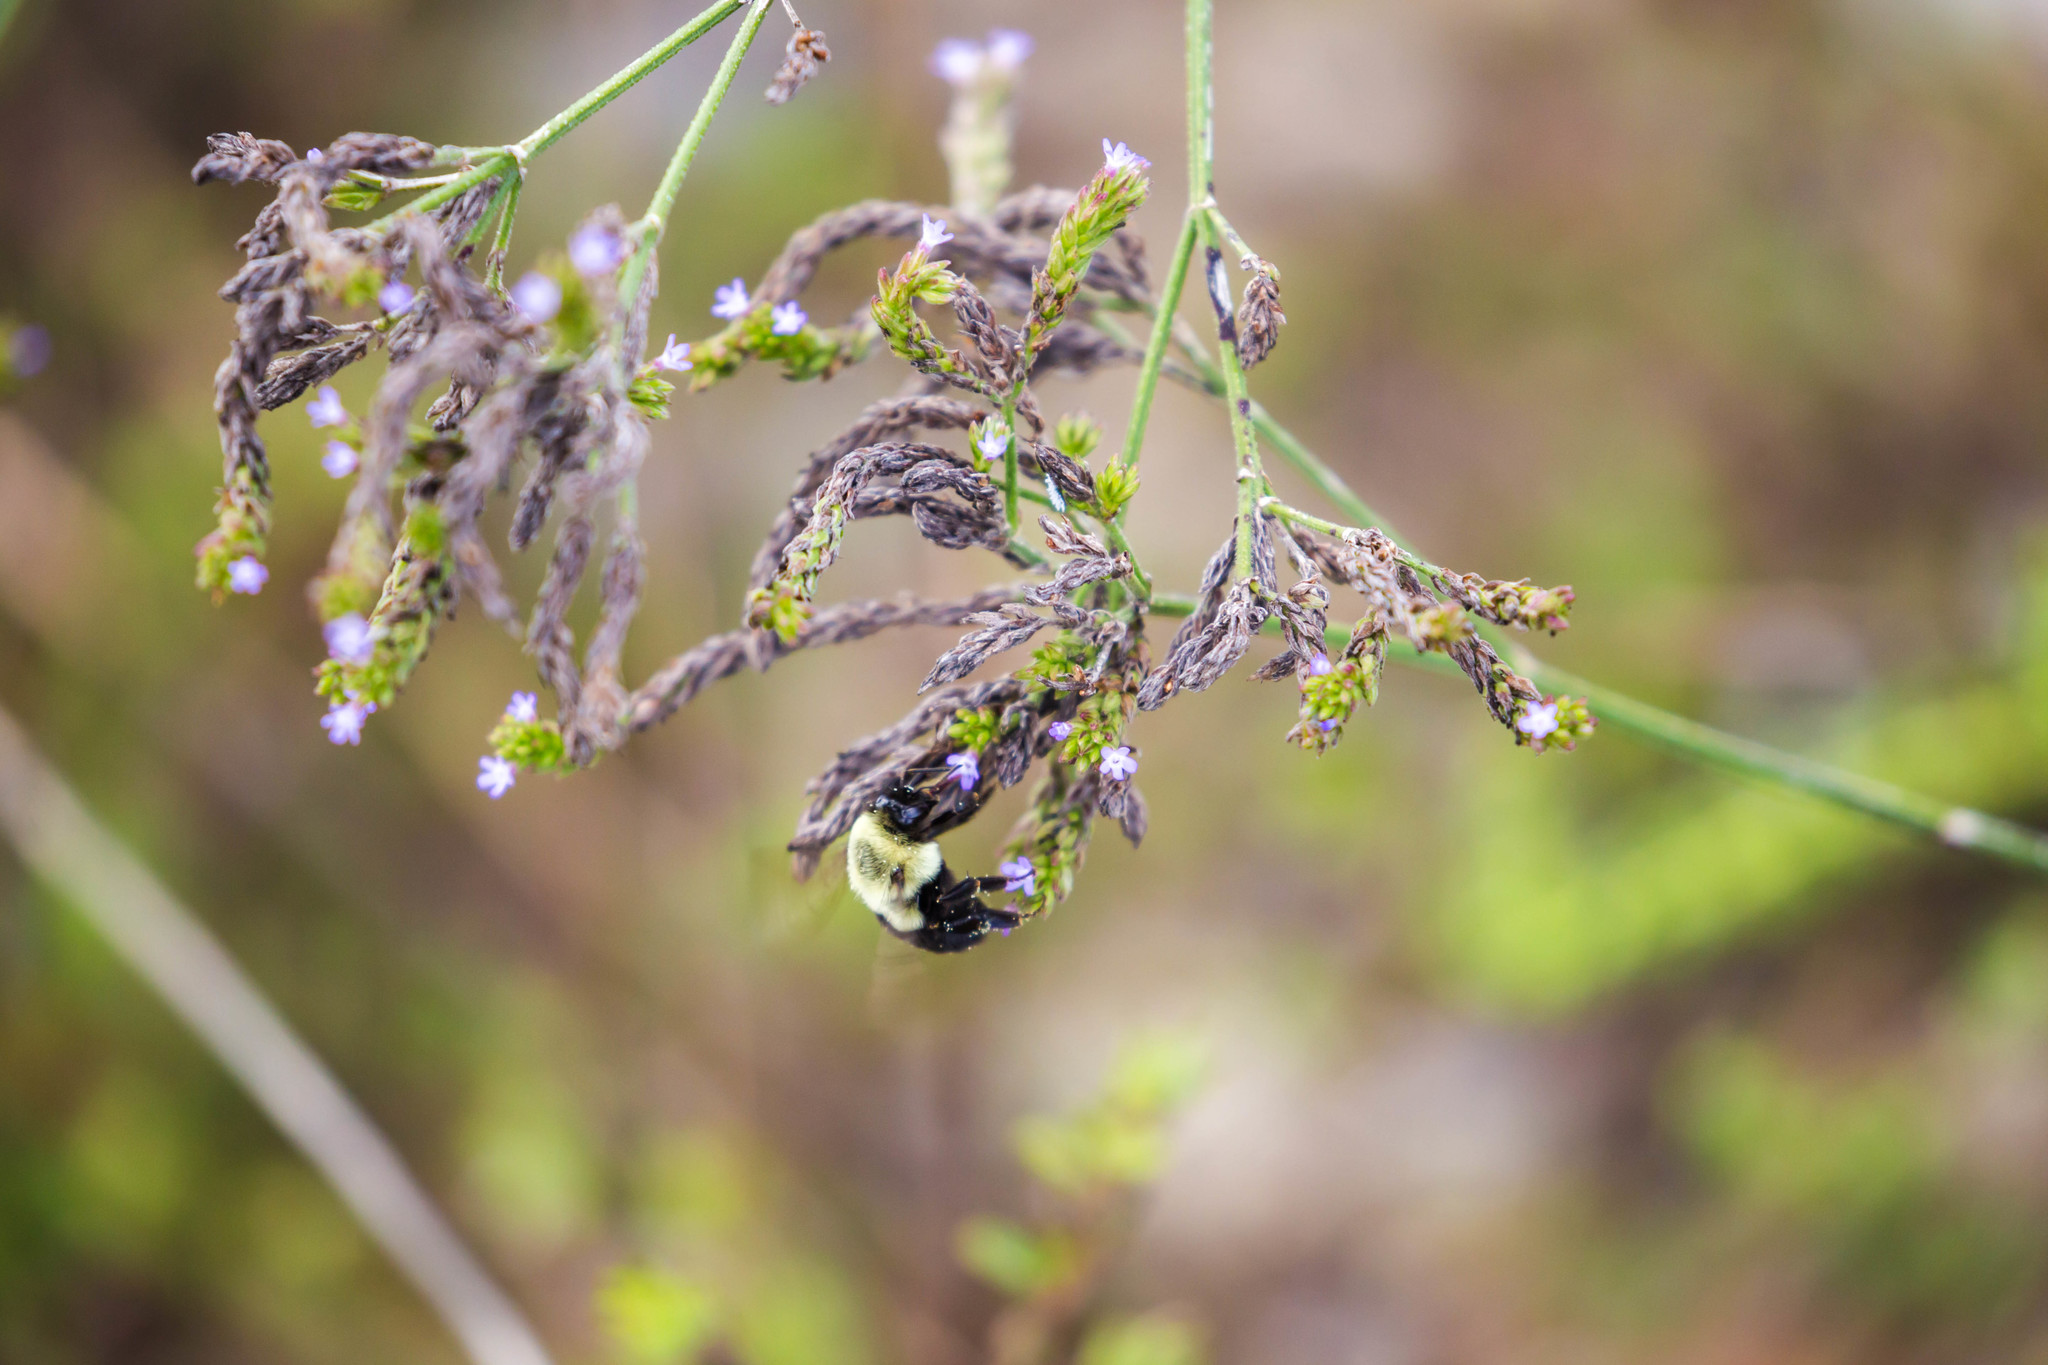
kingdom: Animalia
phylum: Arthropoda
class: Insecta
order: Hymenoptera
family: Apidae
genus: Bombus
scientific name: Bombus impatiens
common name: Common eastern bumble bee
